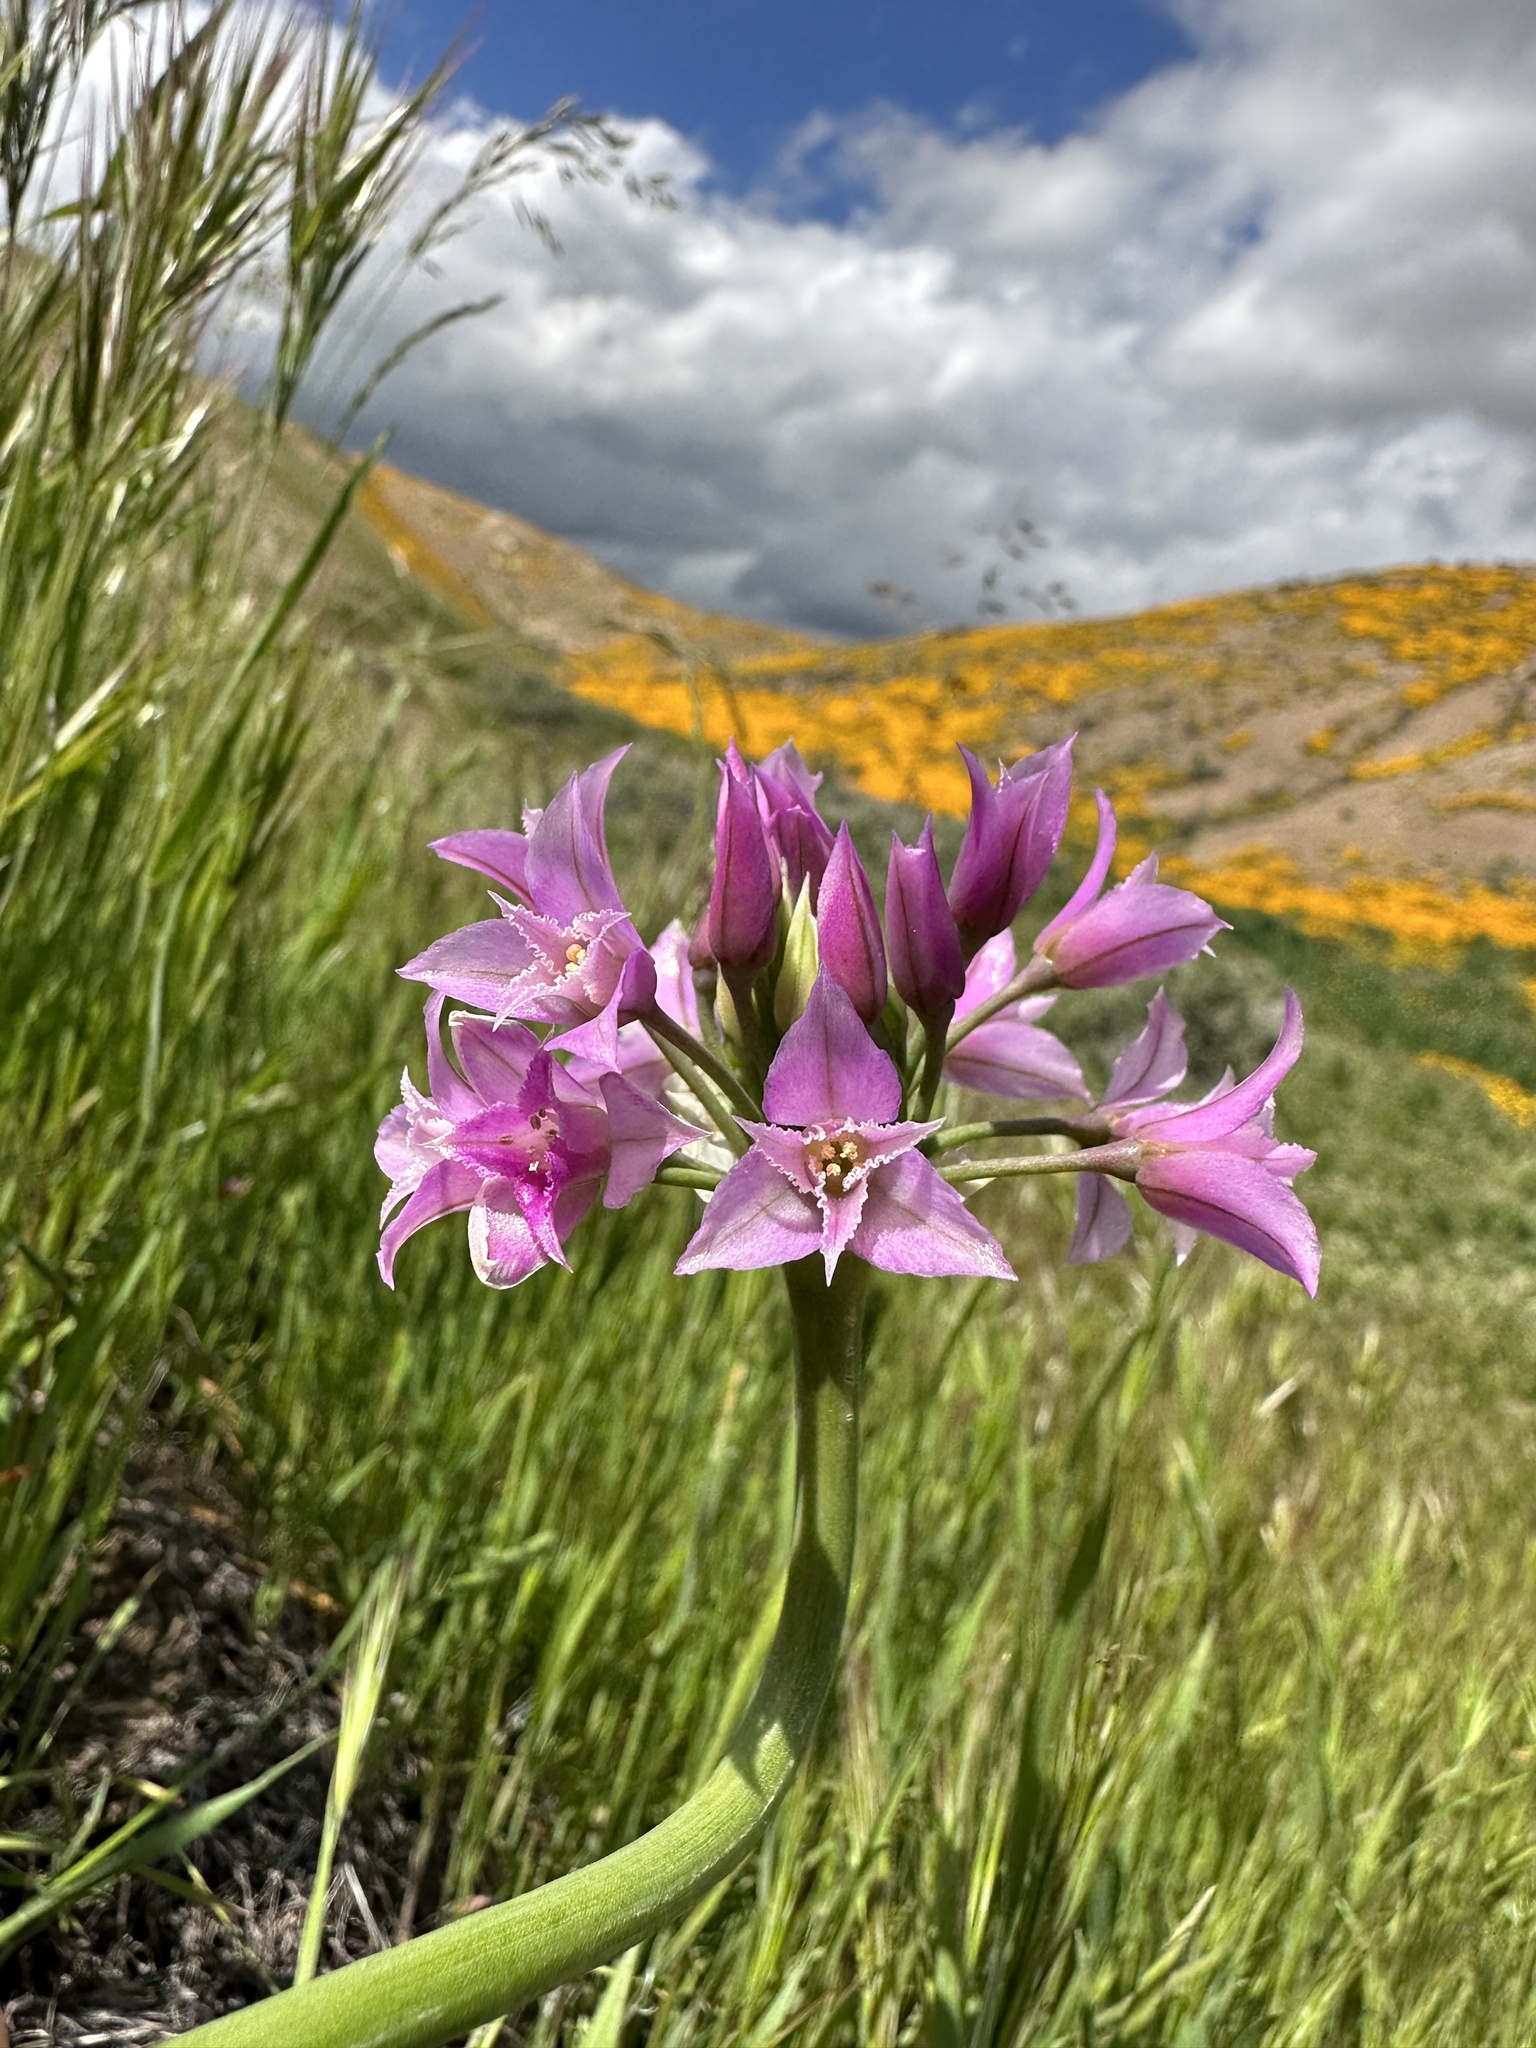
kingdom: Plantae
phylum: Tracheophyta
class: Liliopsida
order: Asparagales
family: Amaryllidaceae
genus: Allium
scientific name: Allium crispum
